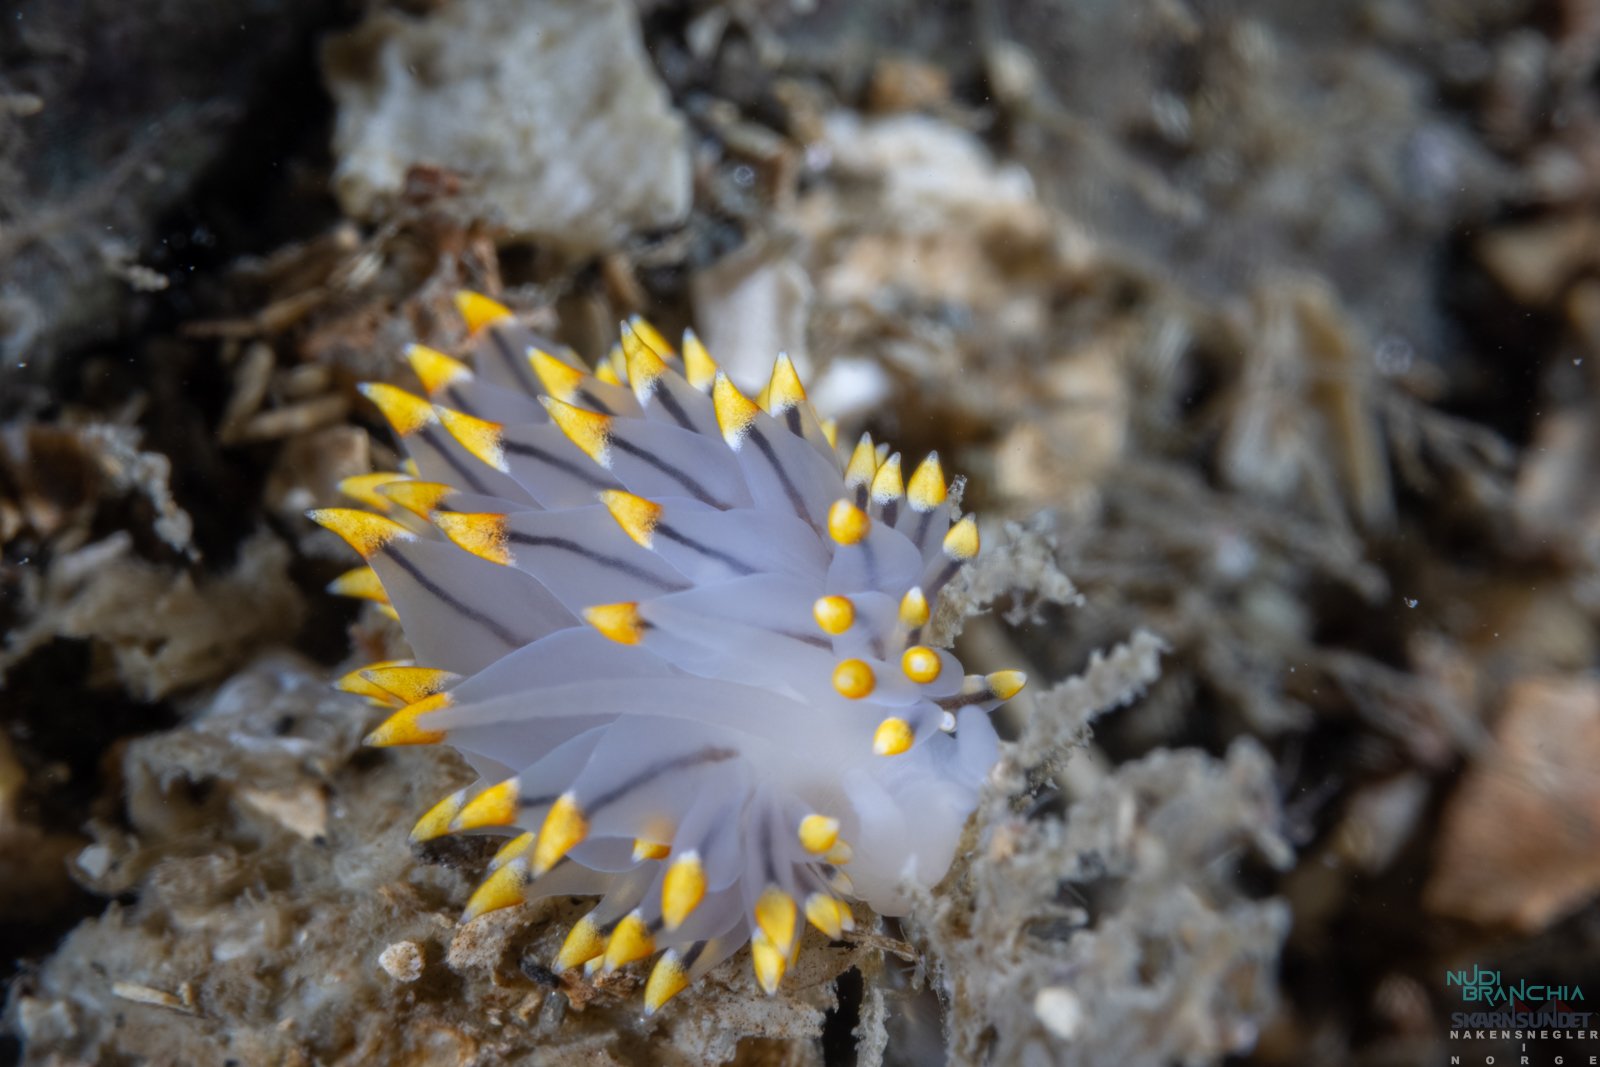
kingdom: Animalia
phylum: Mollusca
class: Gastropoda
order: Nudibranchia
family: Eubranchidae
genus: Eubranchus
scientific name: Eubranchus tricolor
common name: Painted balloon aeolis
